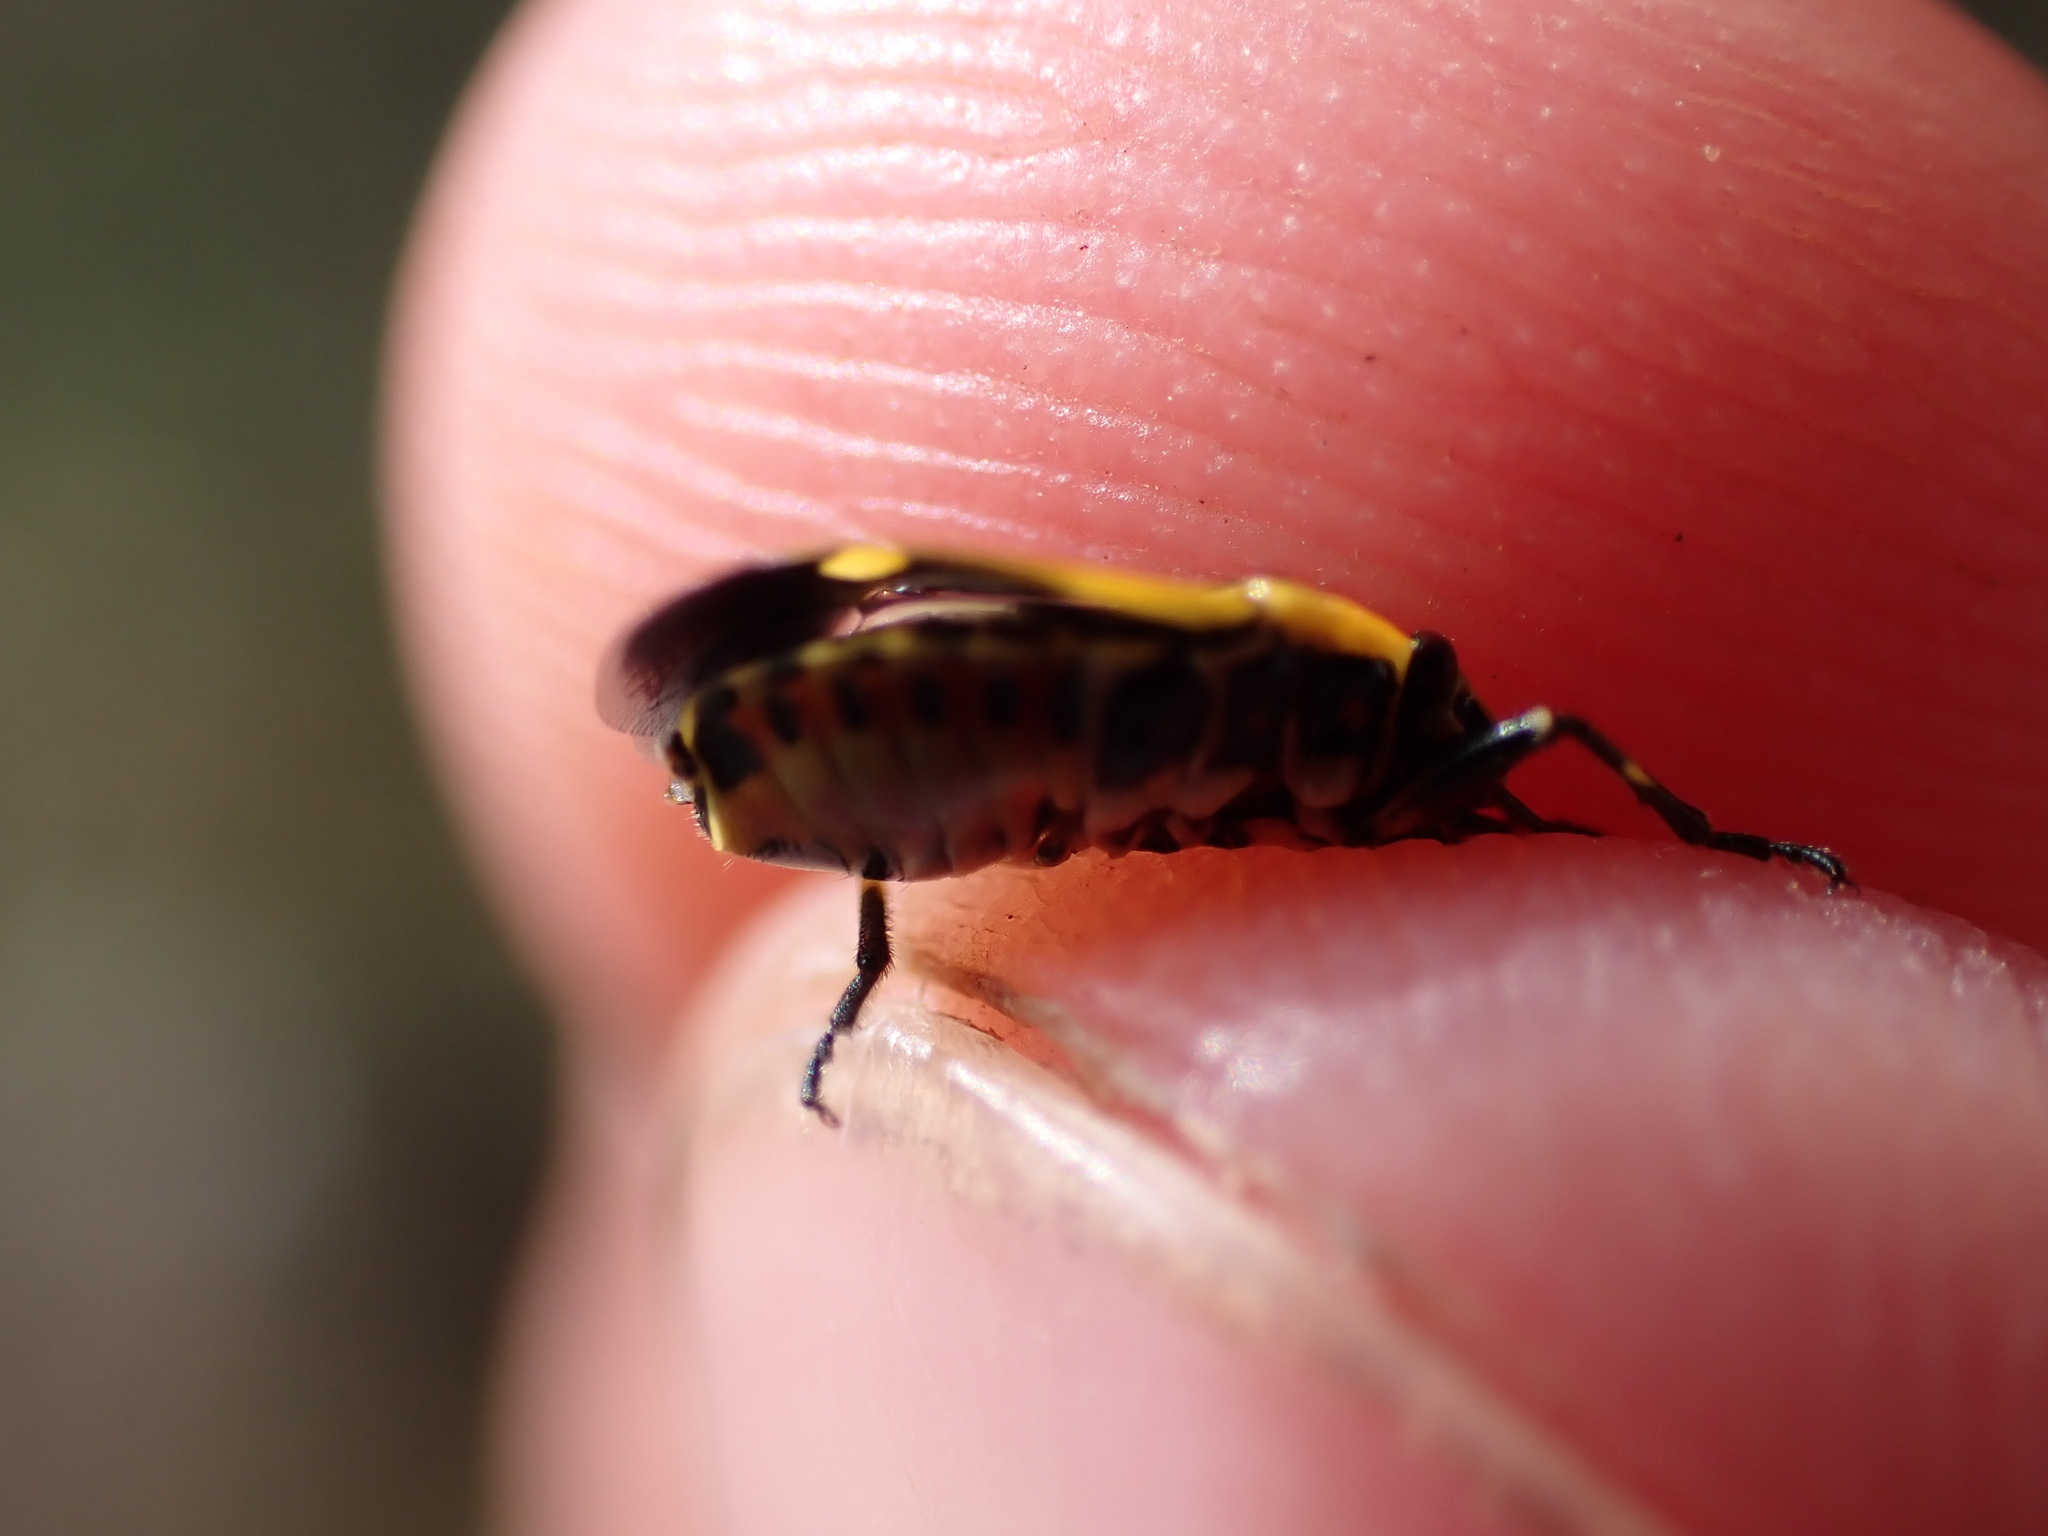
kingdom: Animalia
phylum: Arthropoda
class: Insecta
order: Hemiptera
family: Pentatomidae
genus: Eurydema
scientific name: Eurydema oleracea
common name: Cabbage bug
